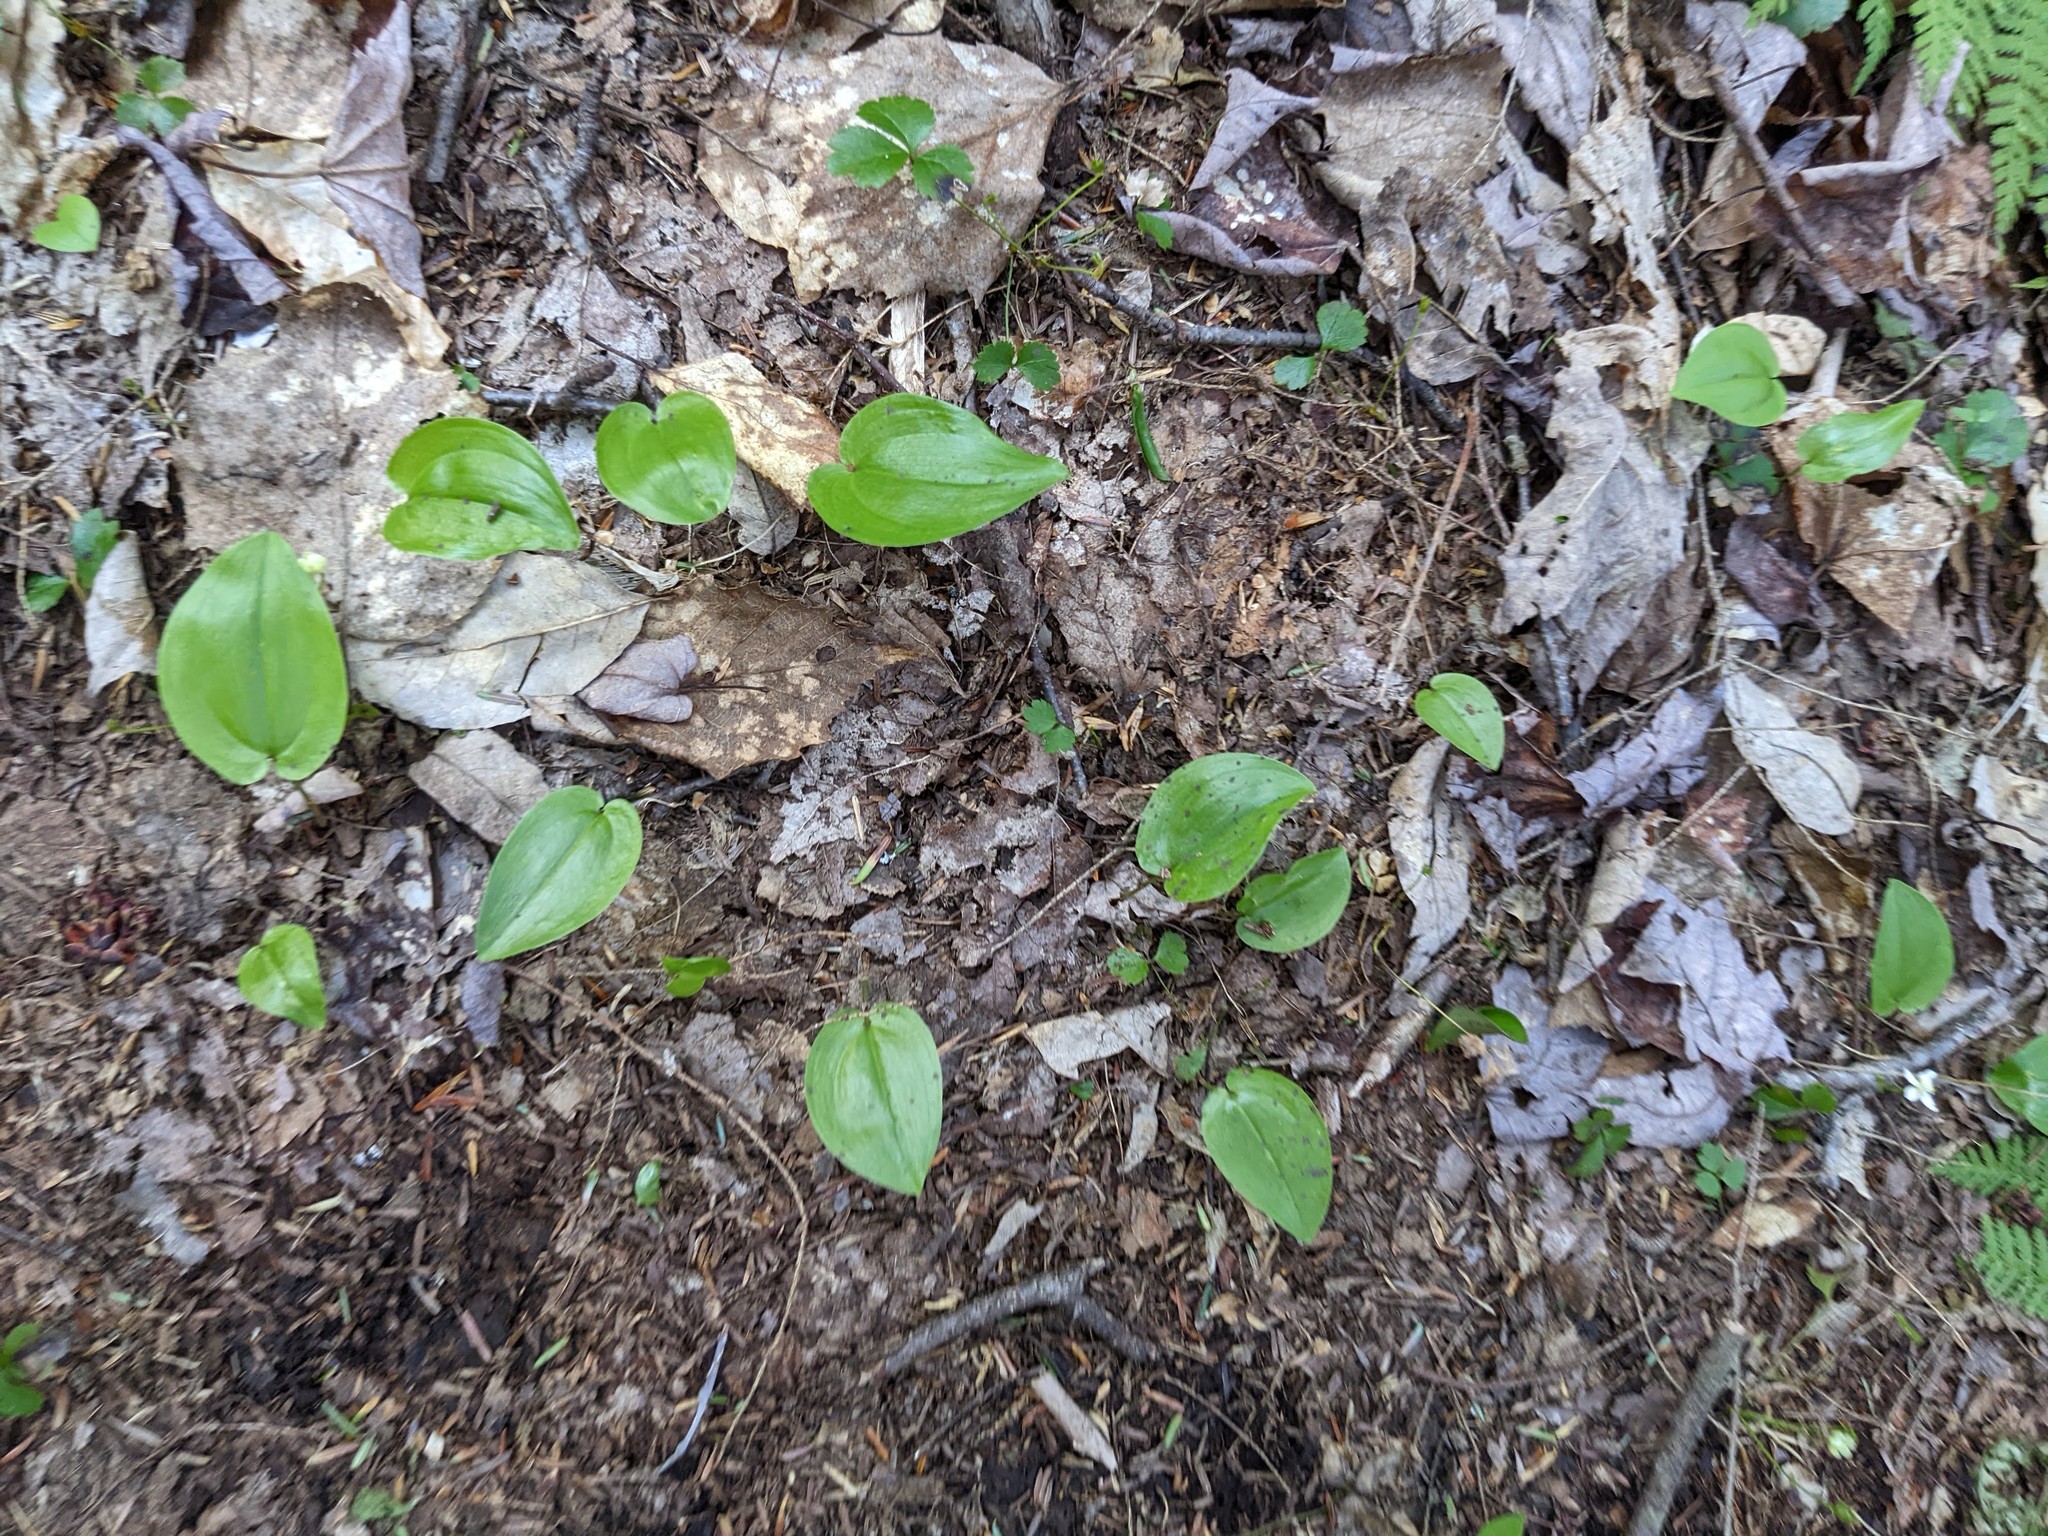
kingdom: Plantae
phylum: Tracheophyta
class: Liliopsida
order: Asparagales
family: Asparagaceae
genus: Maianthemum
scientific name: Maianthemum canadense
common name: False lily-of-the-valley
